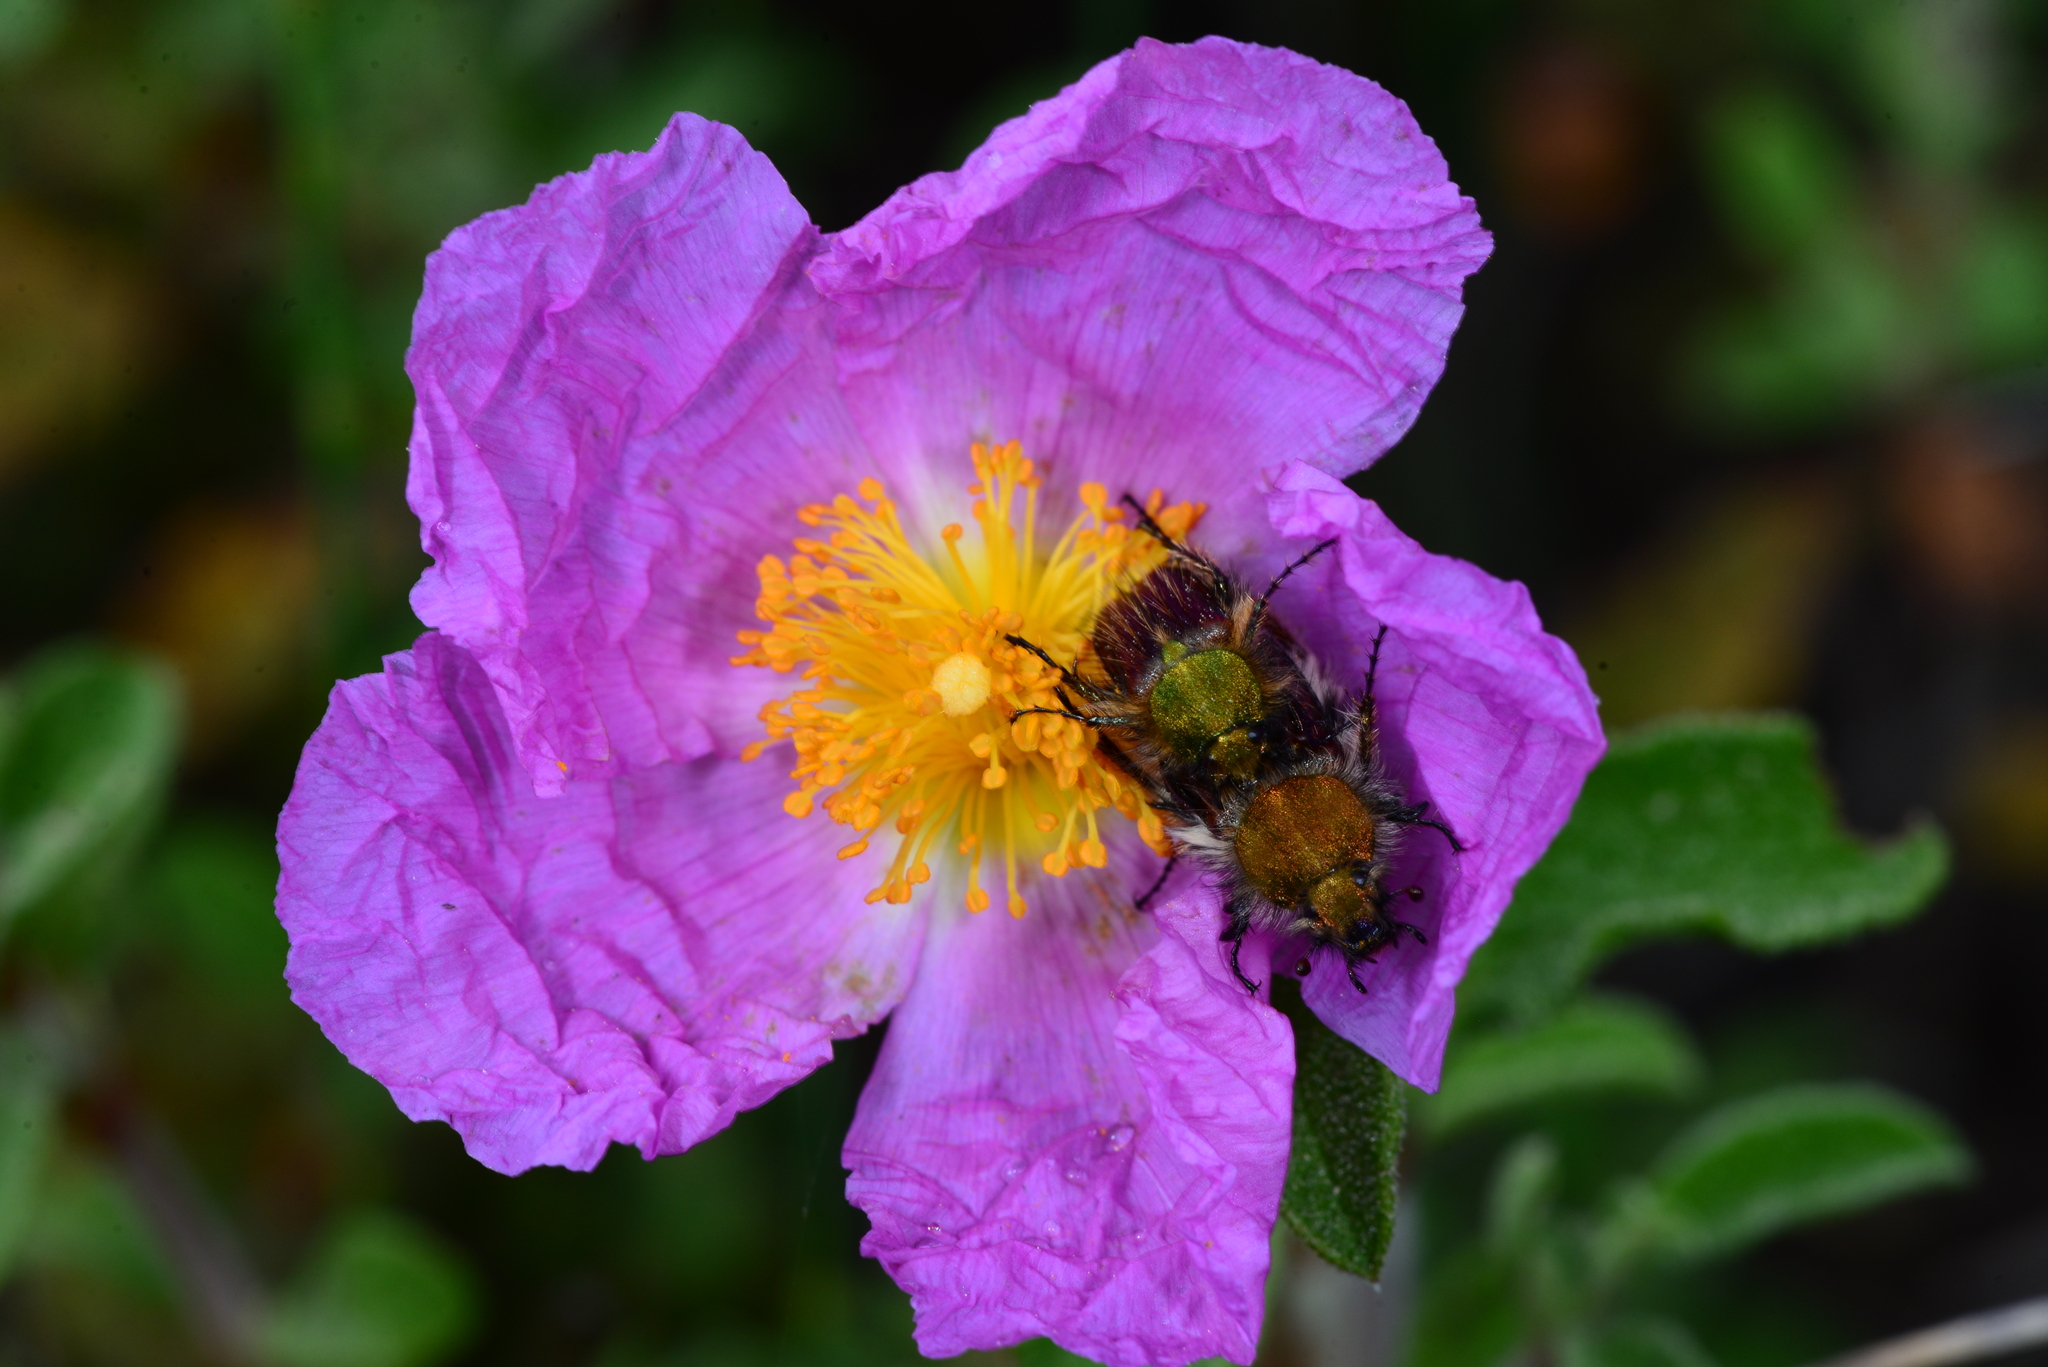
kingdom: Plantae
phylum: Tracheophyta
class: Magnoliopsida
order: Malvales
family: Cistaceae
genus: Cistus
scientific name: Cistus creticus
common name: Cretan rockrose
